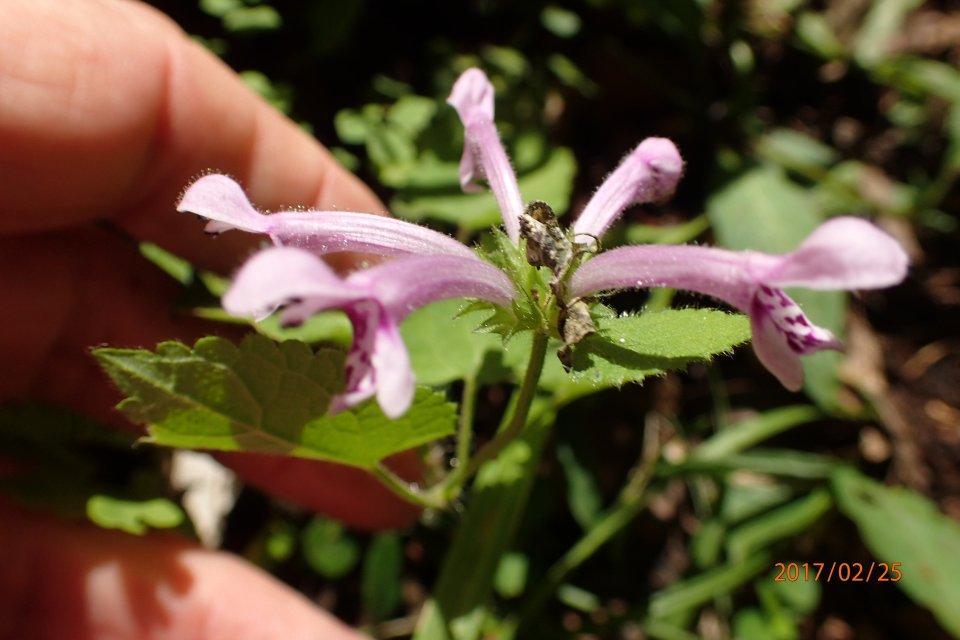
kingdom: Plantae
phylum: Tracheophyta
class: Magnoliopsida
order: Lamiales
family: Lamiaceae
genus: Stachys
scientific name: Stachys tubulosa
